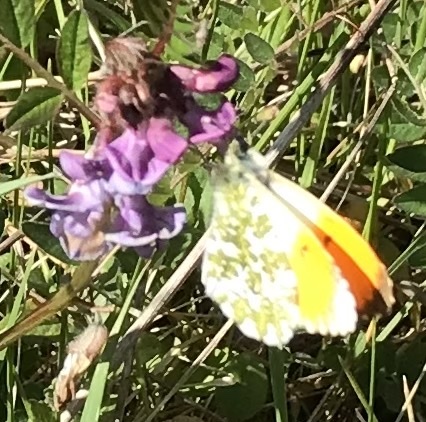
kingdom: Animalia
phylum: Arthropoda
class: Insecta
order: Lepidoptera
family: Pieridae
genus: Anthocharis
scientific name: Anthocharis cardamines
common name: Orange-tip
